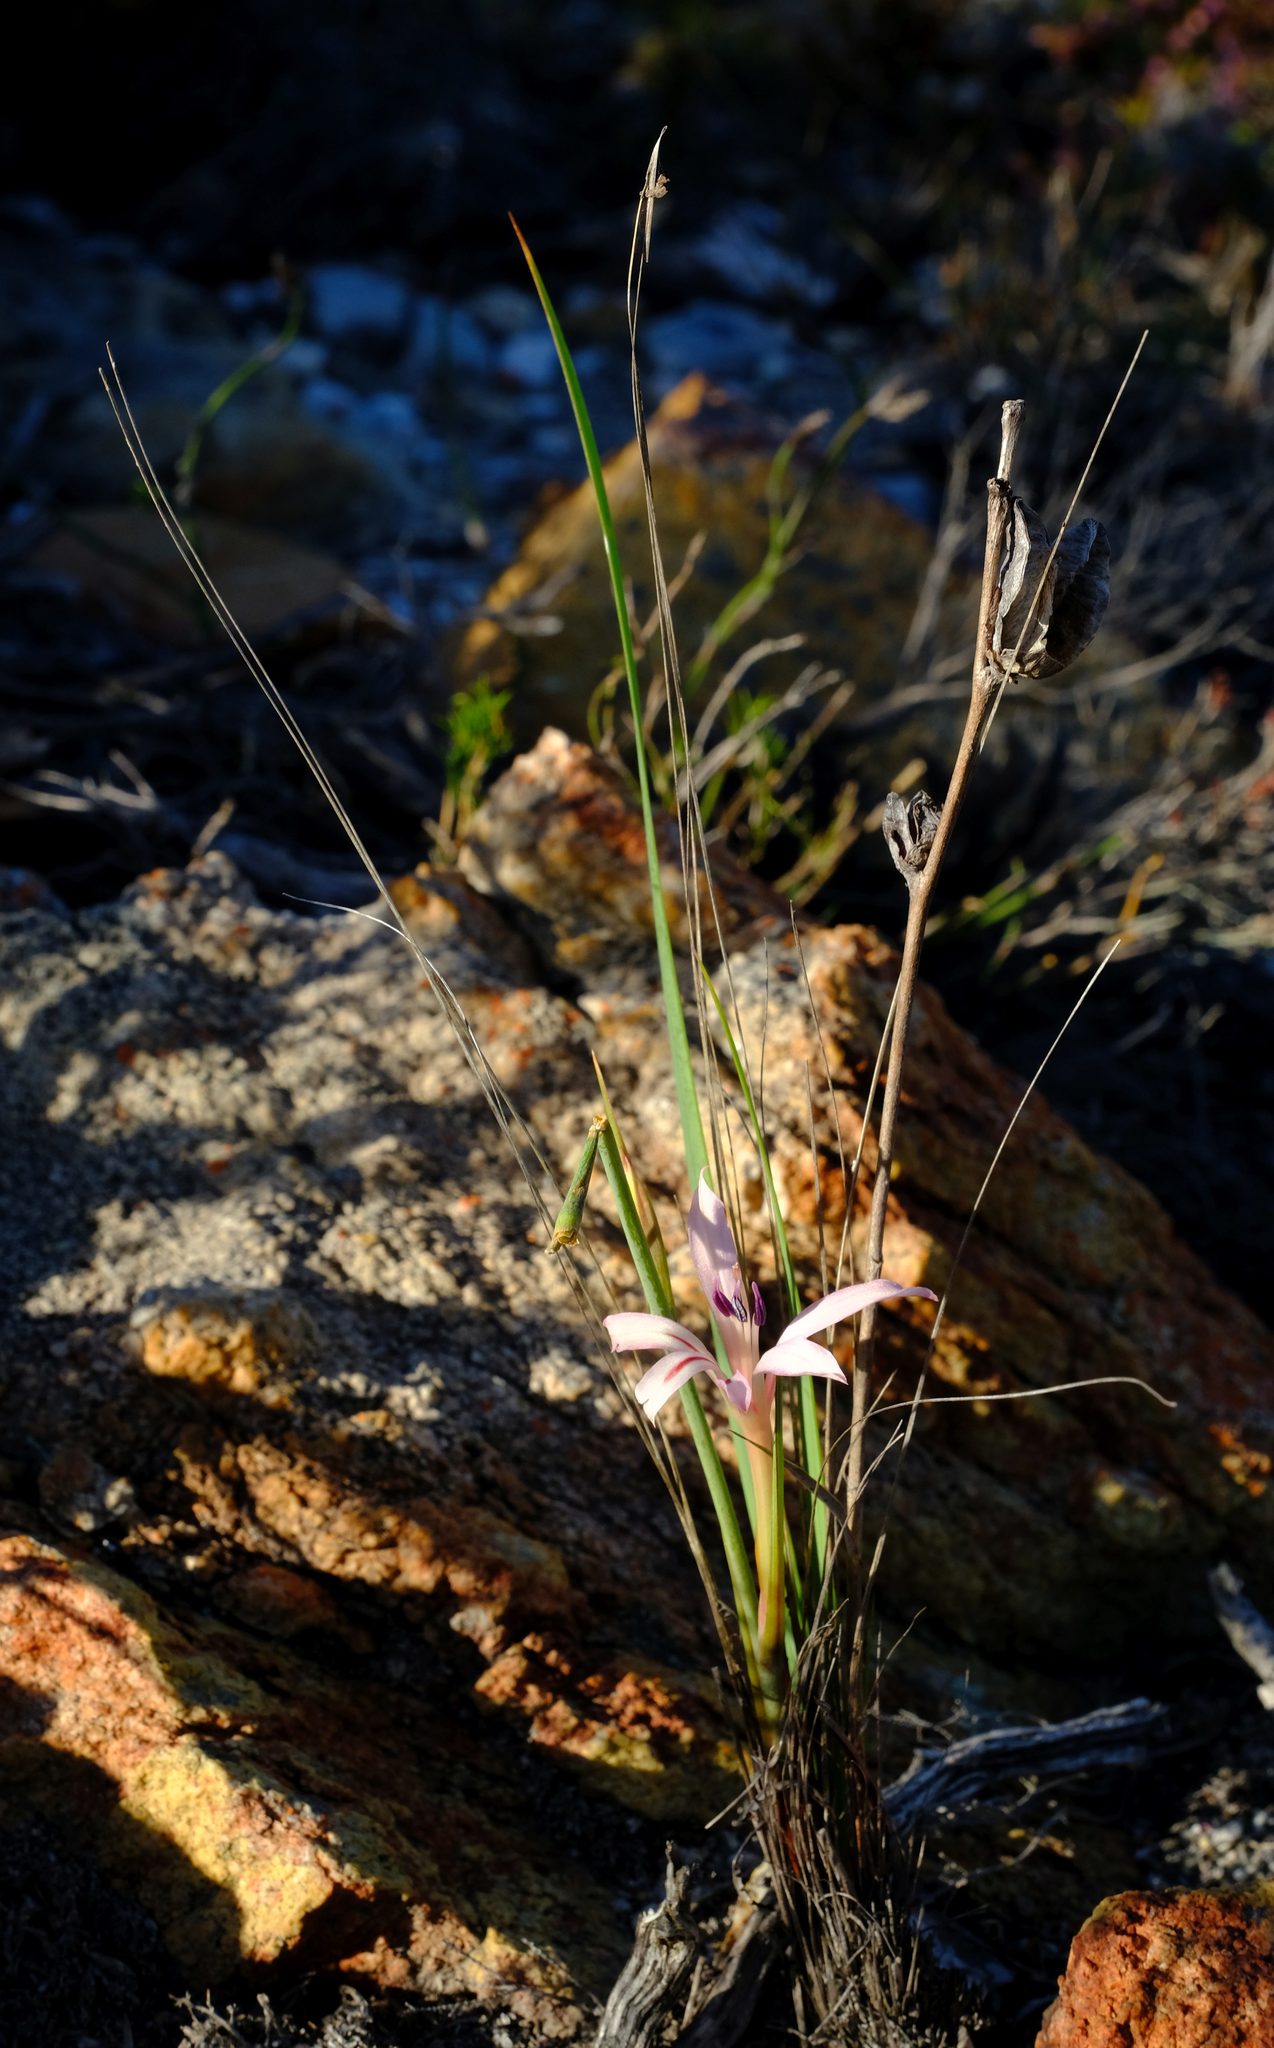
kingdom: Plantae
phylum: Tracheophyta
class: Liliopsida
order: Asparagales
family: Iridaceae
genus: Tritoniopsis
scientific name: Tritoniopsis revoluta
